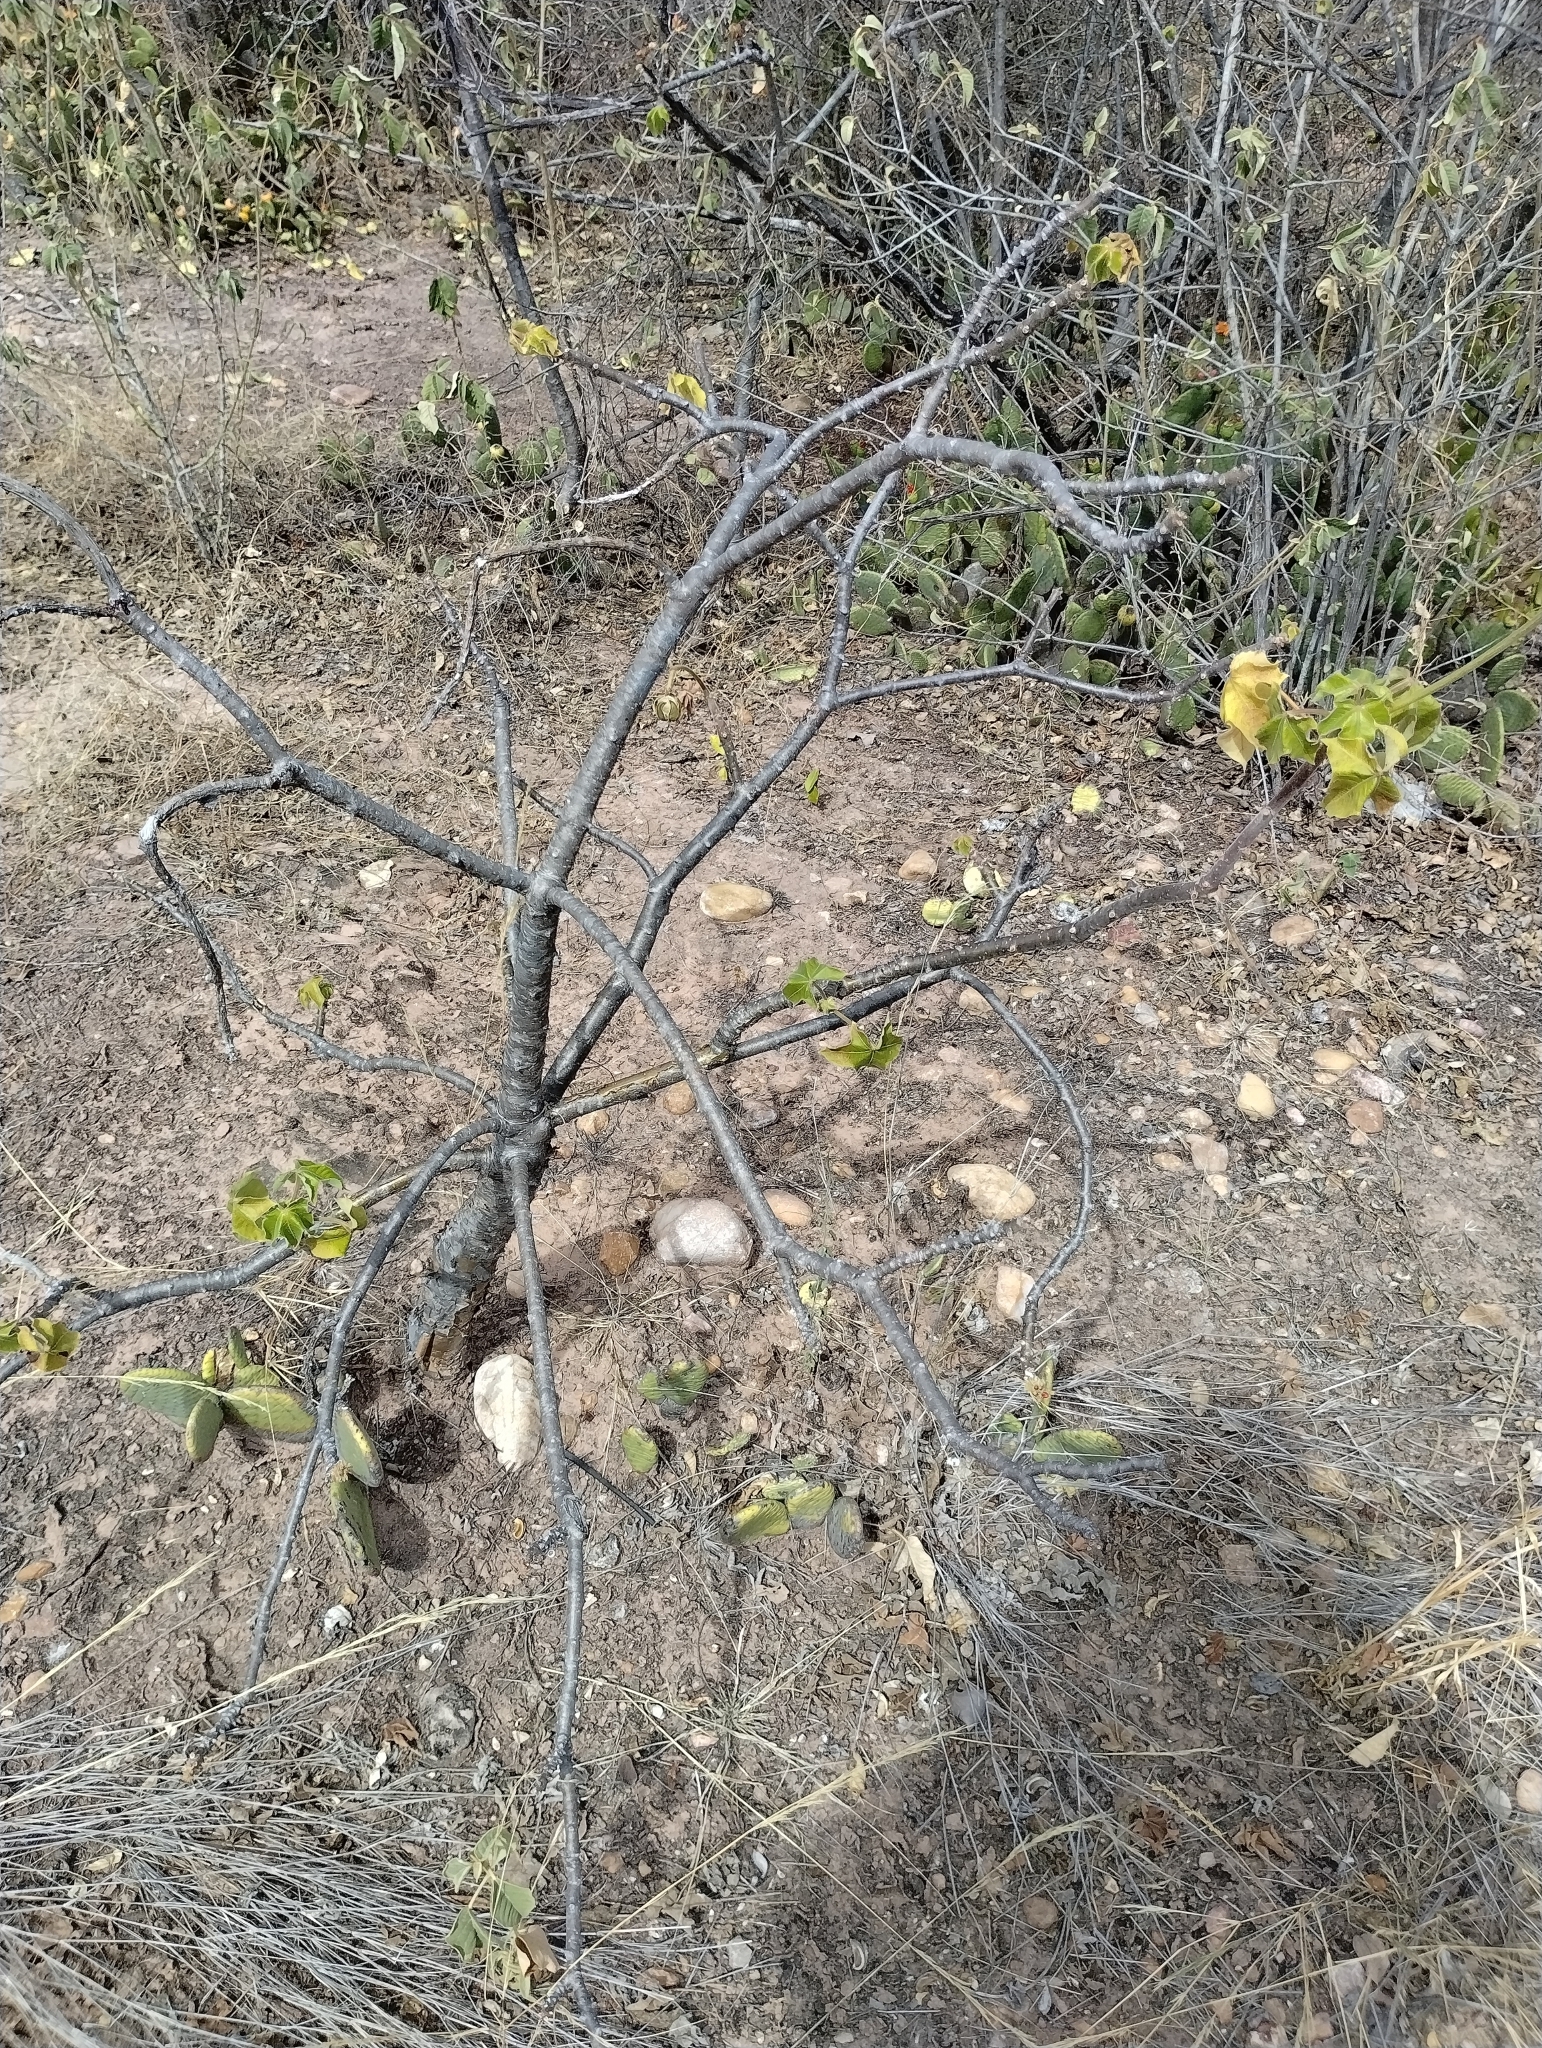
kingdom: Plantae
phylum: Tracheophyta
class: Magnoliopsida
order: Malpighiales
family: Euphorbiaceae
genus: Jatropha
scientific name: Jatropha mollissima
